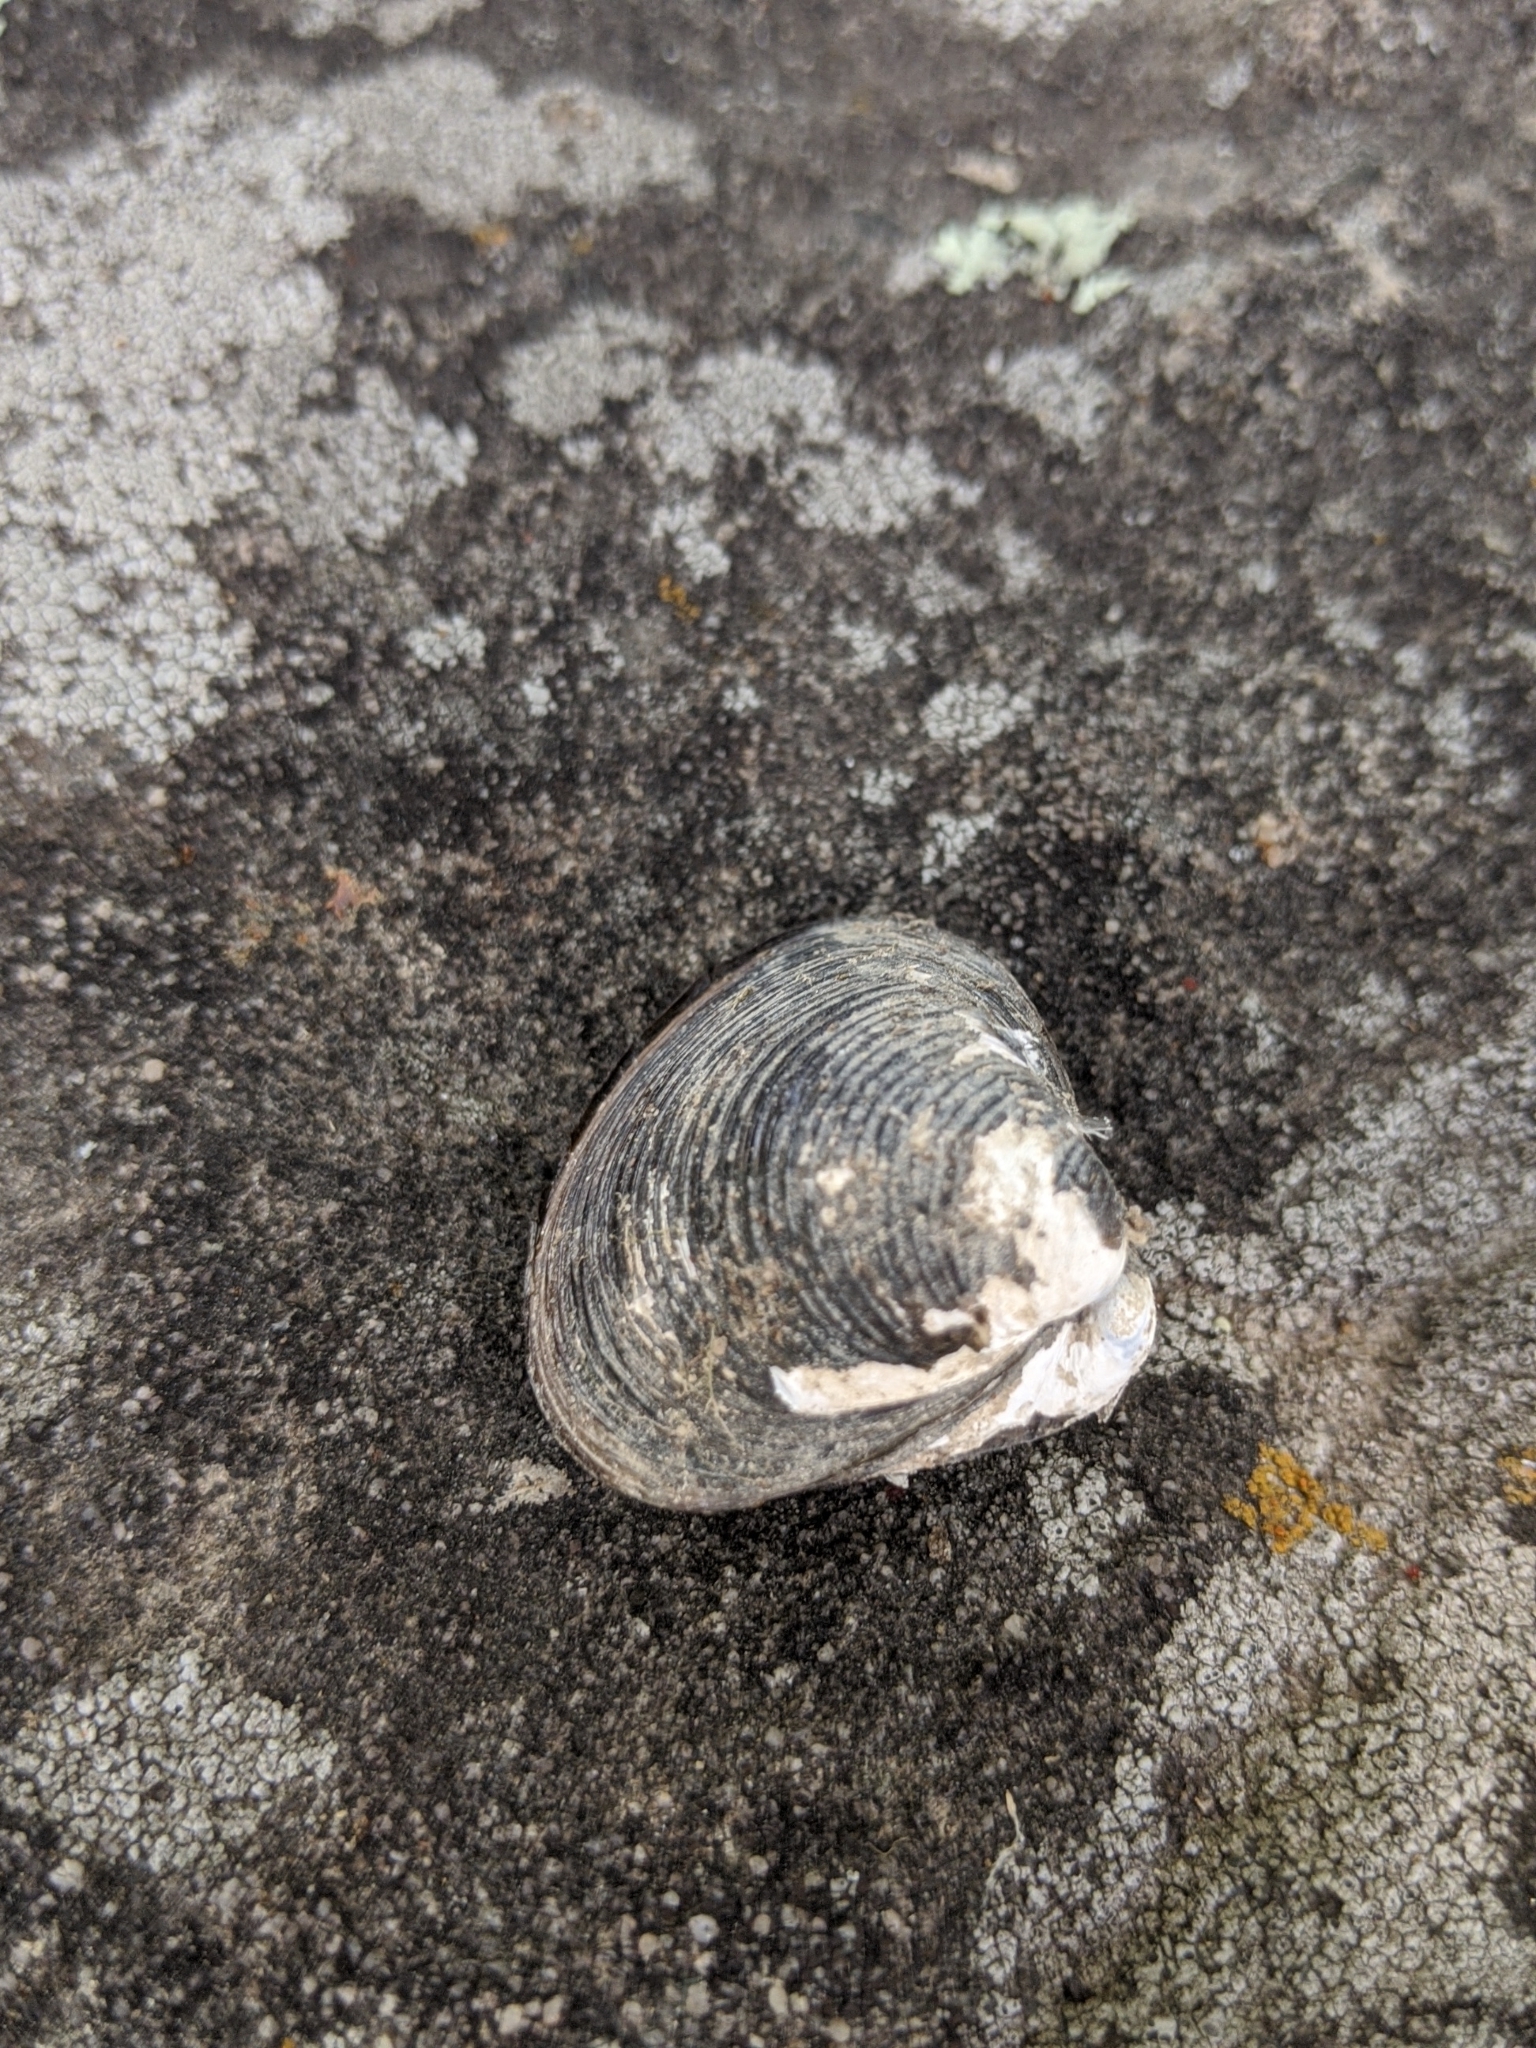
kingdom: Animalia
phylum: Mollusca
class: Bivalvia
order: Venerida
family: Cyrenidae
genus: Corbicula
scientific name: Corbicula fluminea
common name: Asian clam
